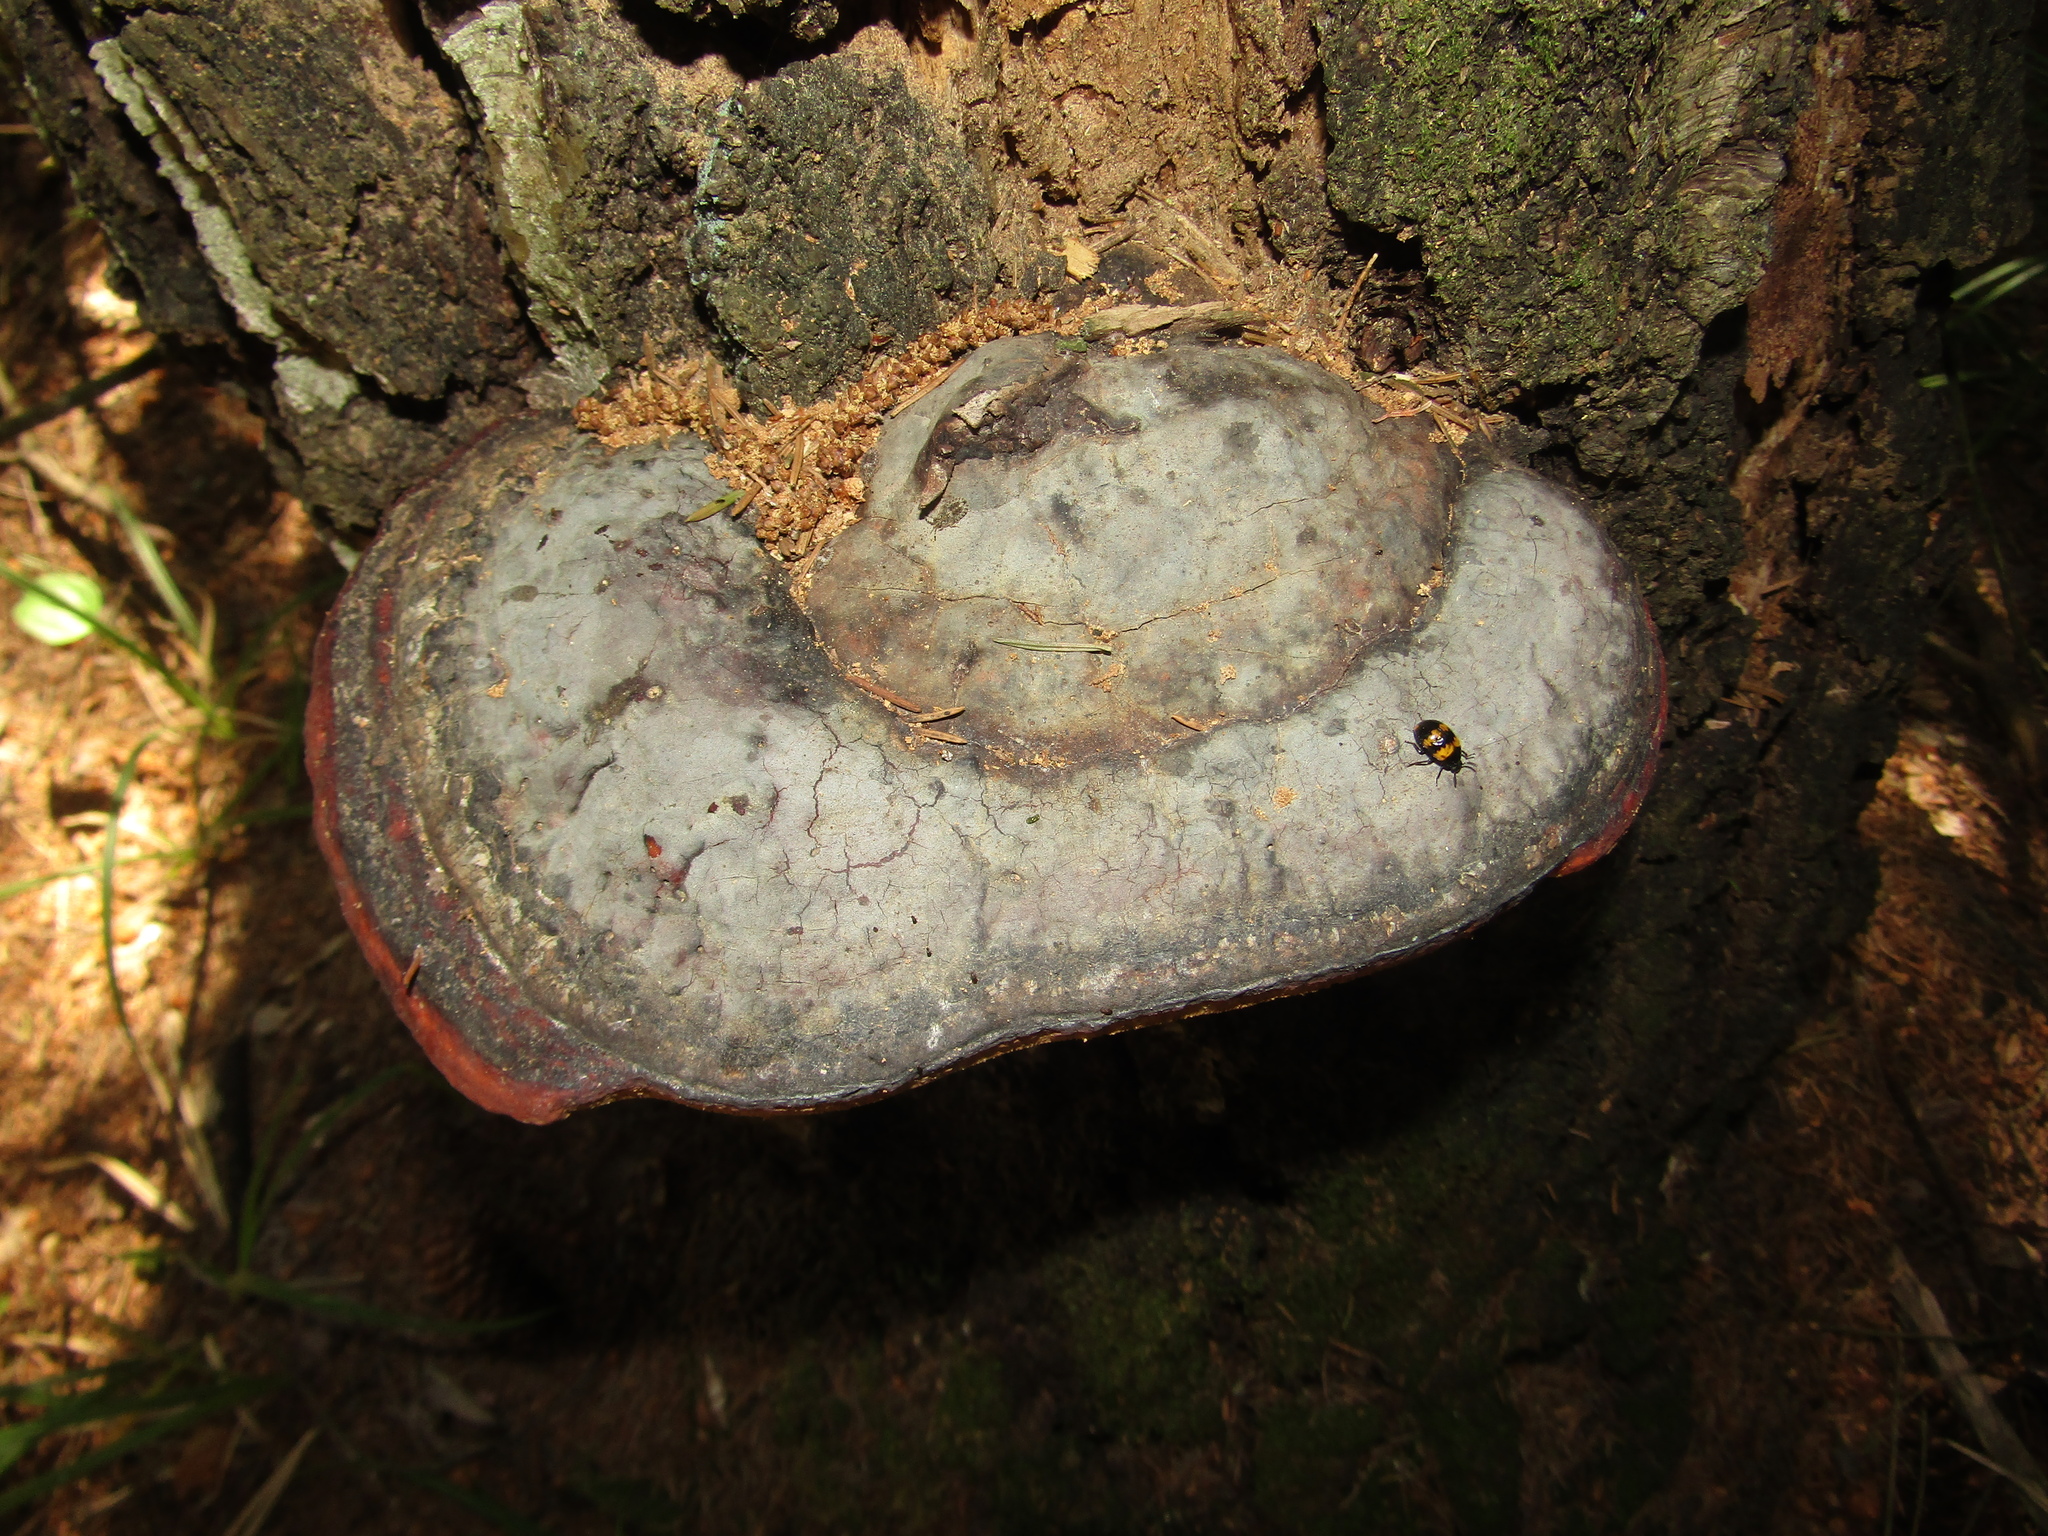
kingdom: Fungi
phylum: Basidiomycota
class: Agaricomycetes
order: Polyporales
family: Fomitopsidaceae
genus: Fomitopsis
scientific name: Fomitopsis pinicola
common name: Red-belted bracket
